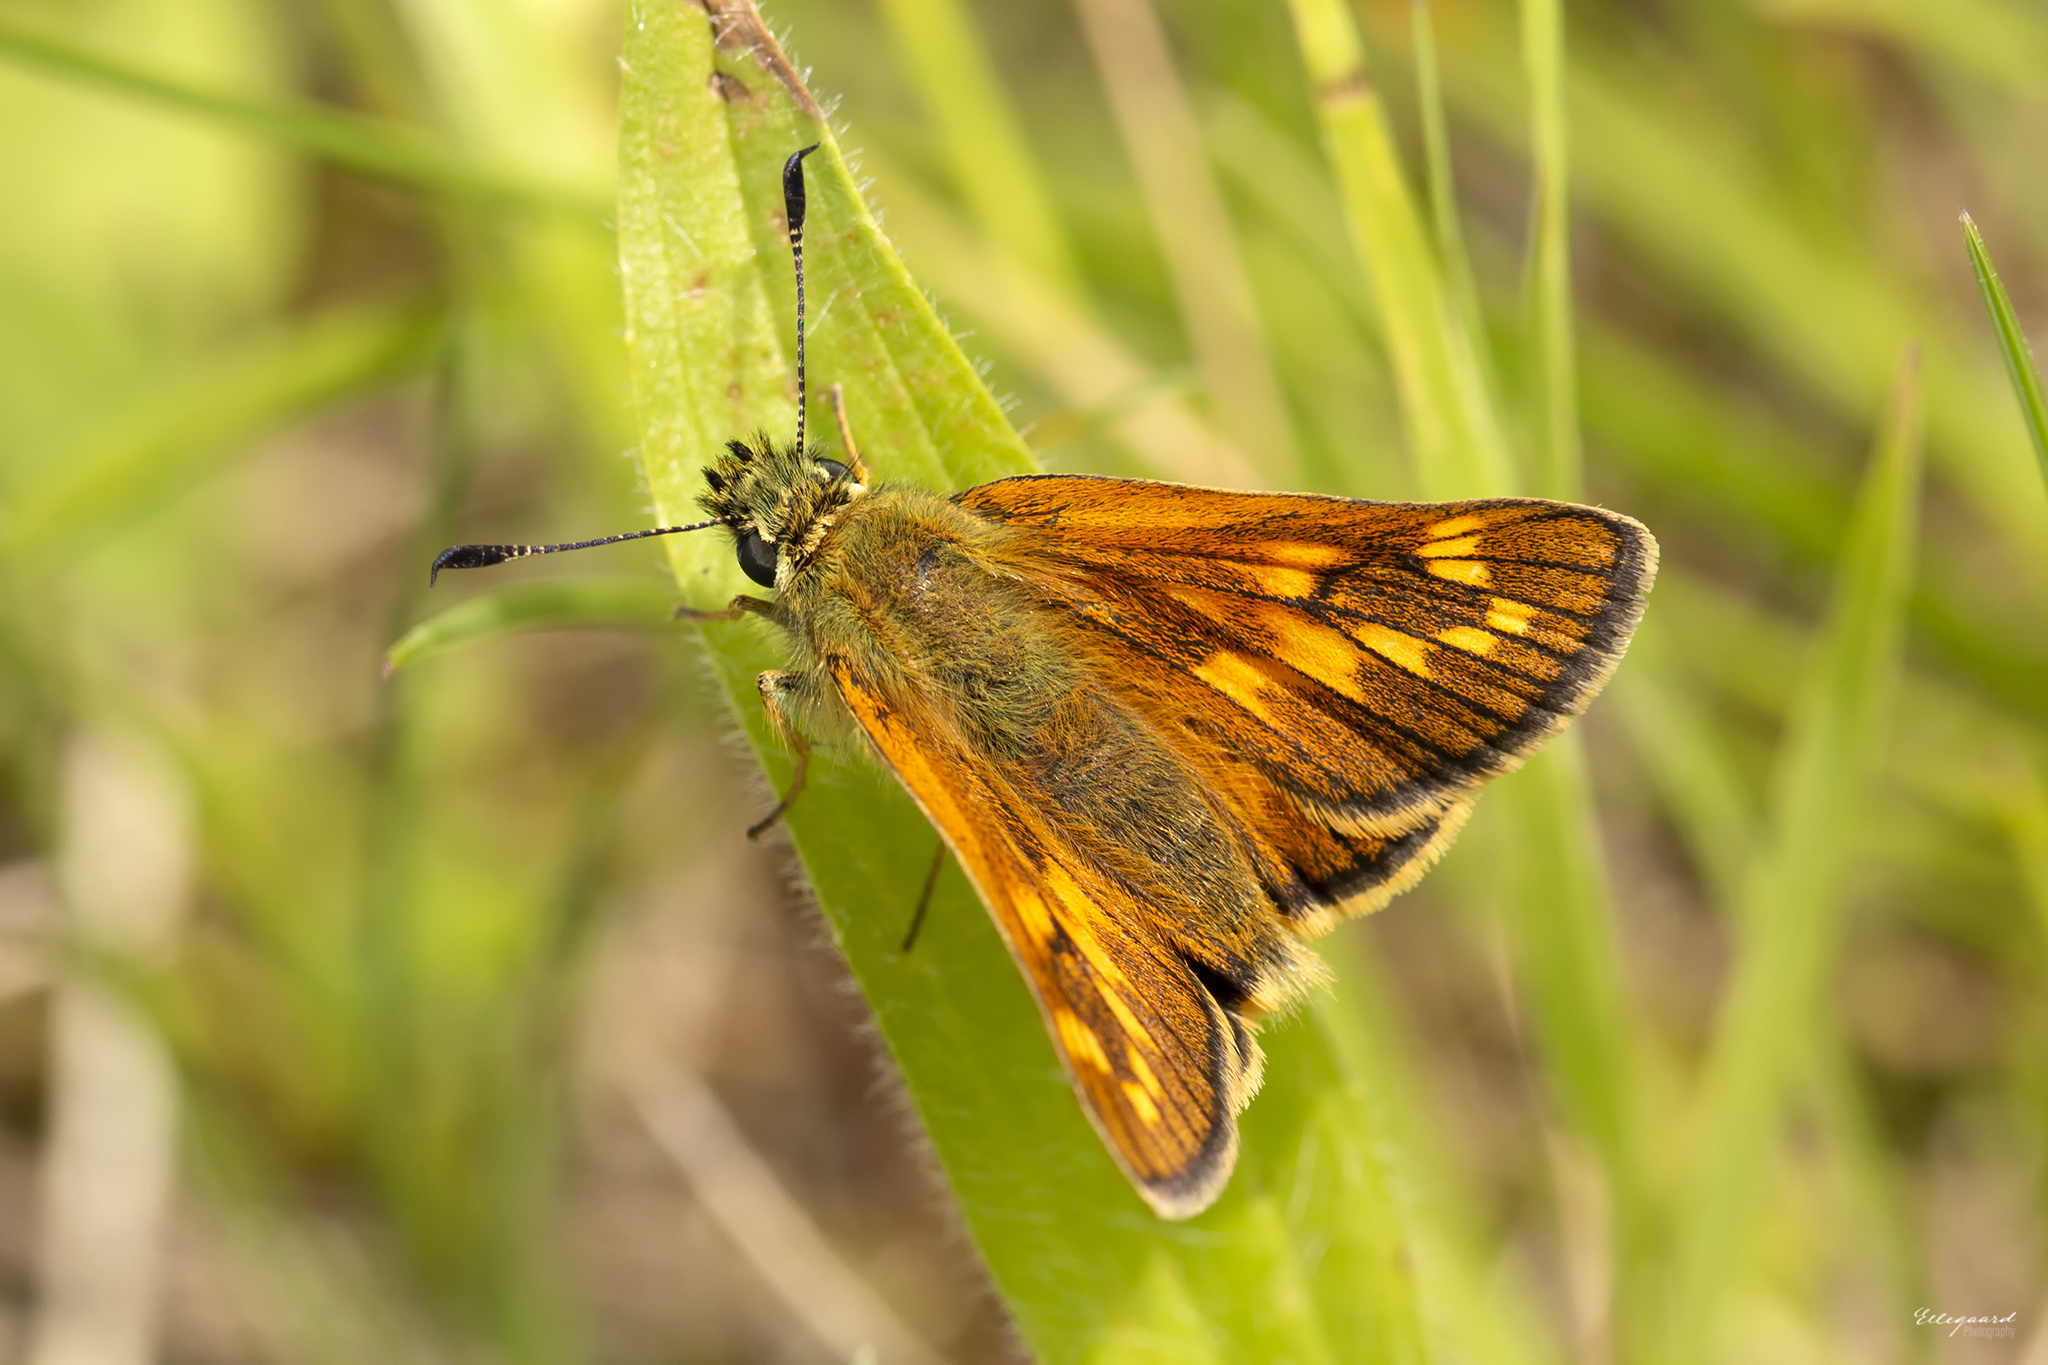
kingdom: Animalia
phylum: Arthropoda
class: Insecta
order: Lepidoptera
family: Hesperiidae
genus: Ochlodes
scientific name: Ochlodes venata
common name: Large skipper
